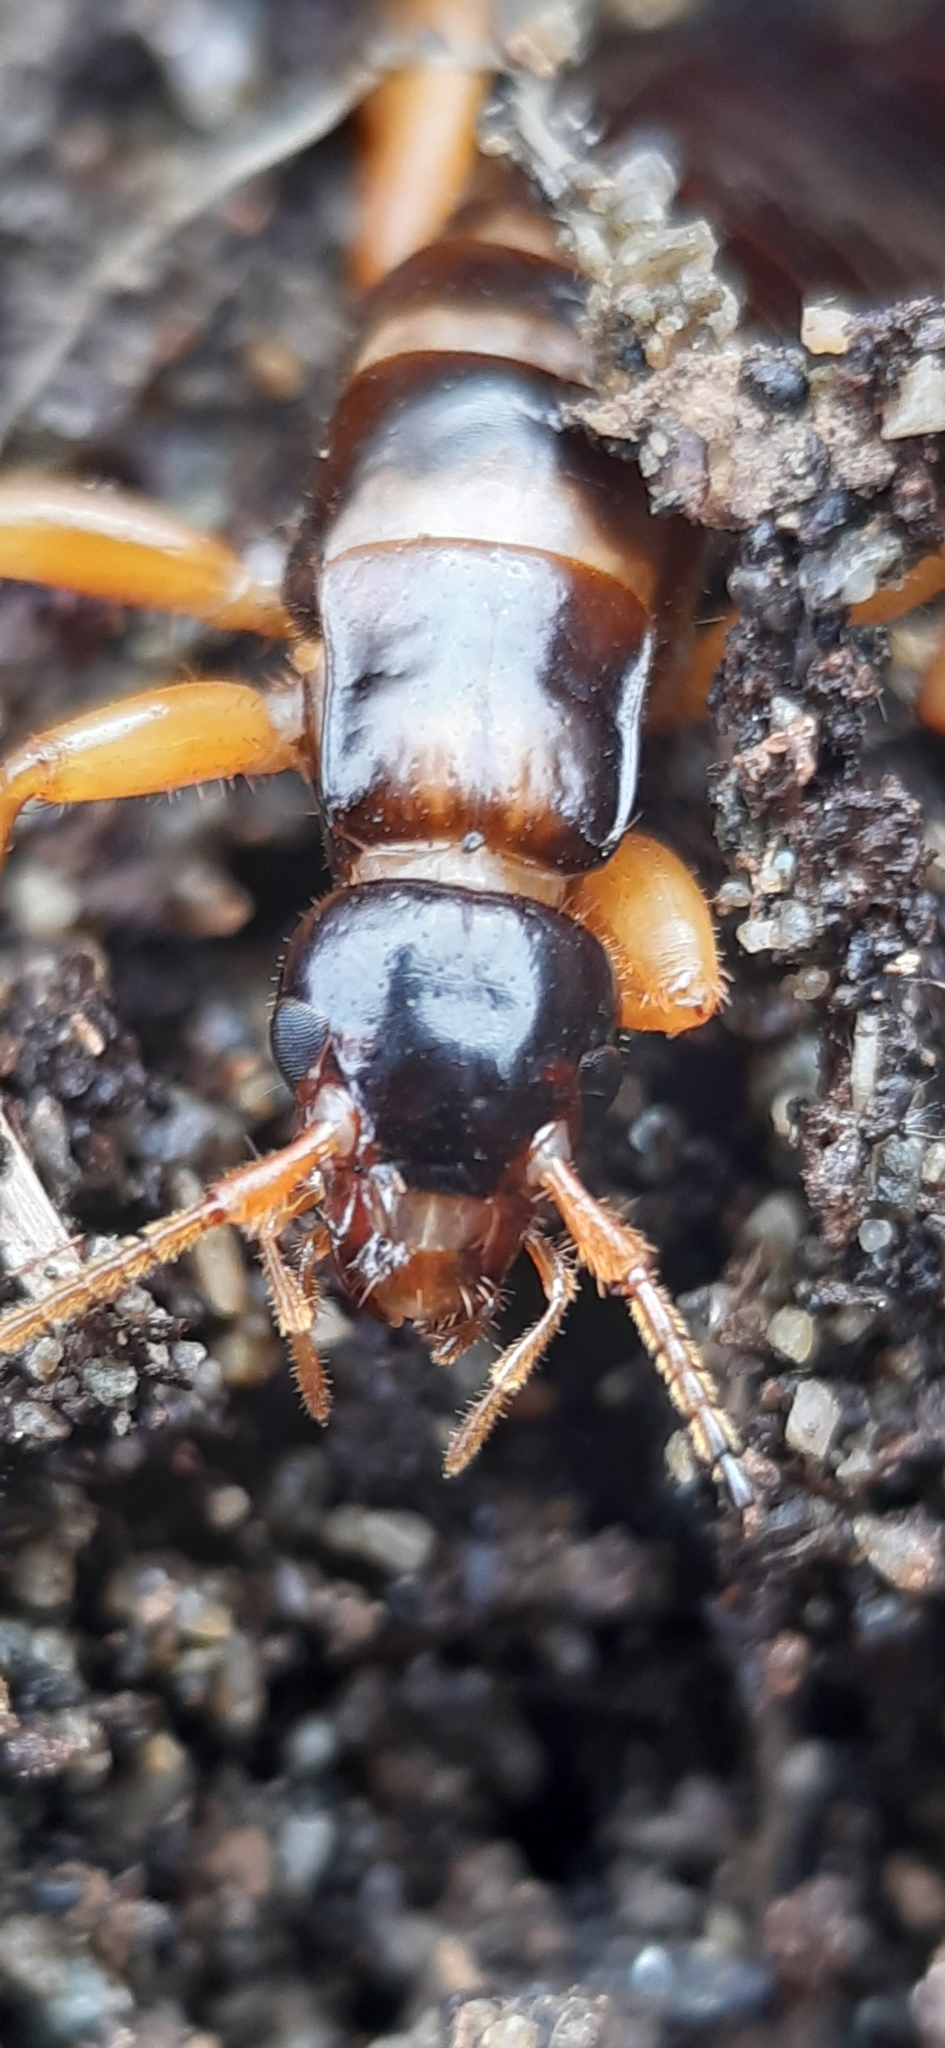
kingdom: Animalia
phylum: Arthropoda
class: Insecta
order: Dermaptera
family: Anisolabididae
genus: Anisolabis
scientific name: Anisolabis littorea
